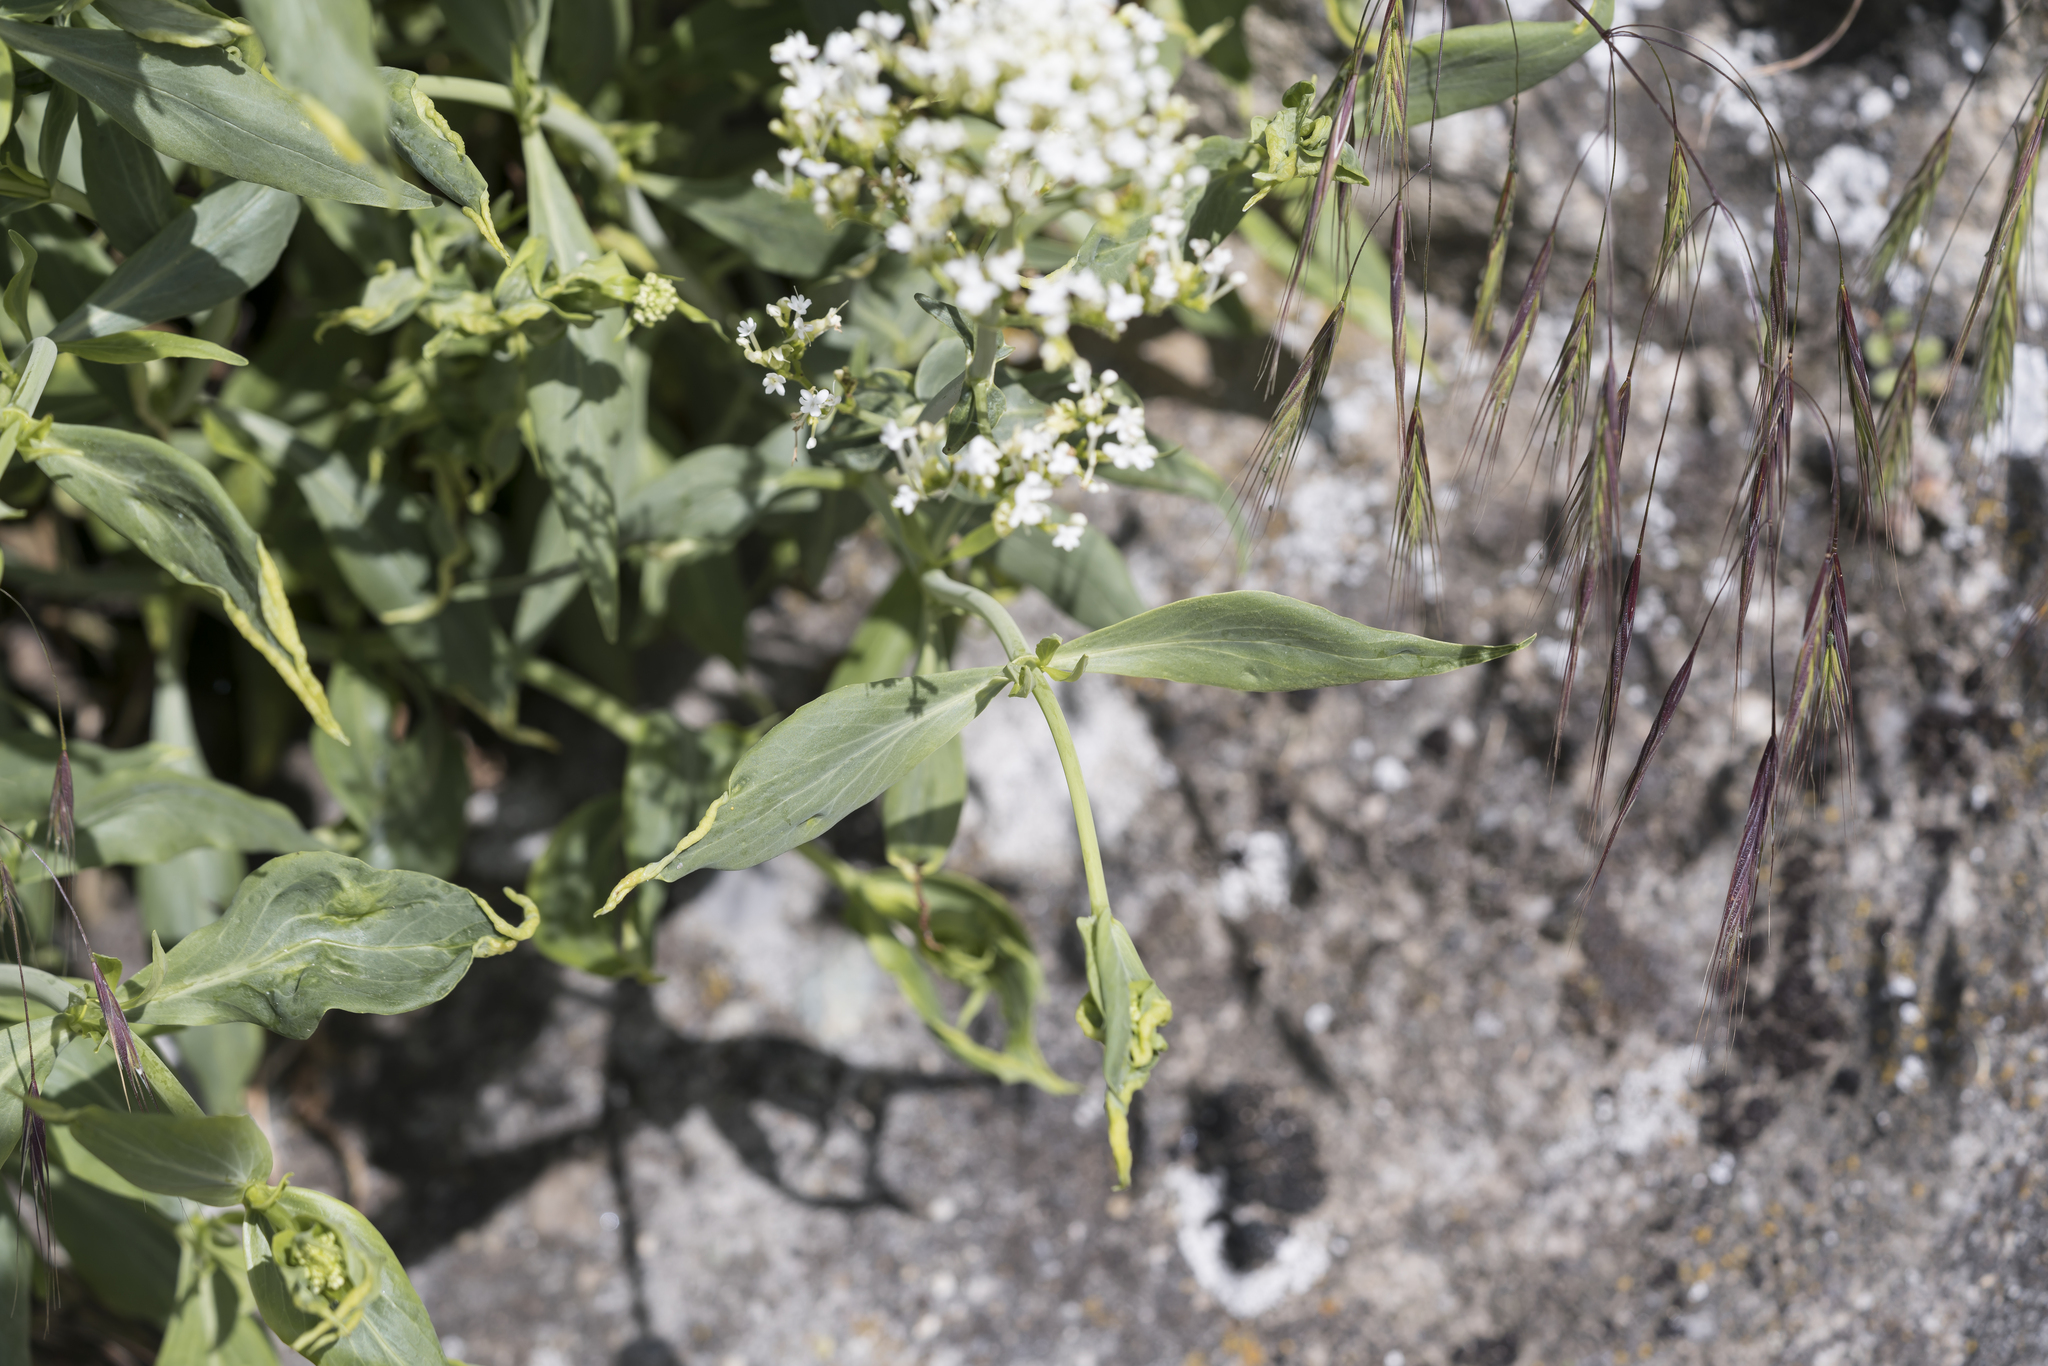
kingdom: Plantae
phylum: Tracheophyta
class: Magnoliopsida
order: Dipsacales
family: Caprifoliaceae
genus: Centranthus
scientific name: Centranthus ruber
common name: Red valerian
